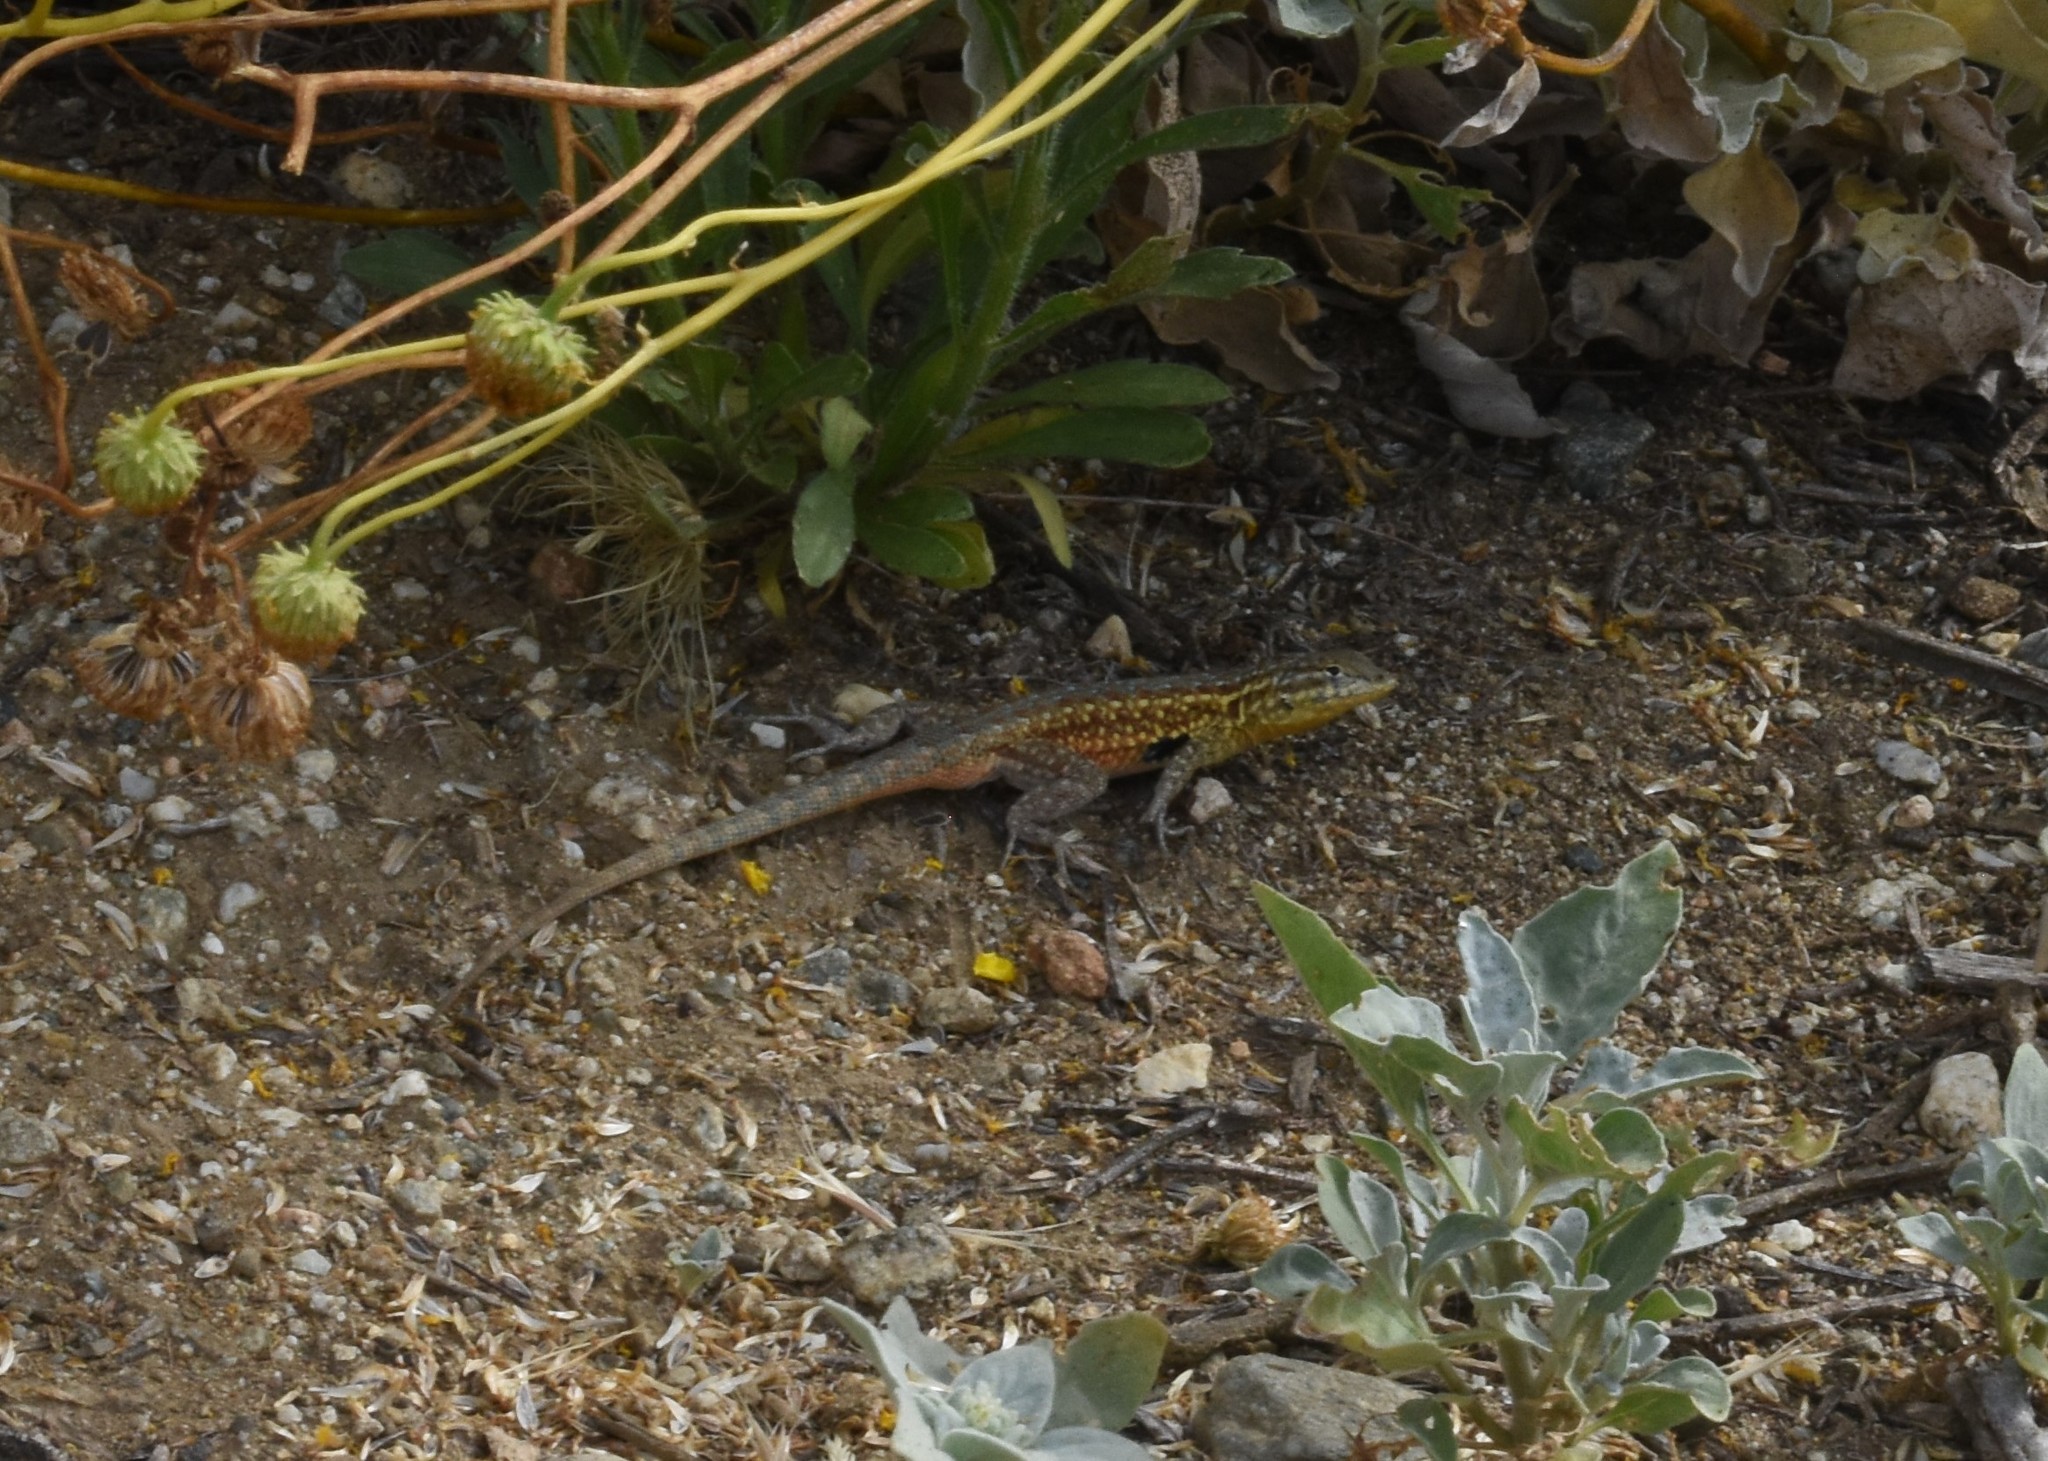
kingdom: Animalia
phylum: Chordata
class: Squamata
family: Phrynosomatidae
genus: Uta
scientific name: Uta stansburiana
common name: Side-blotched lizard
